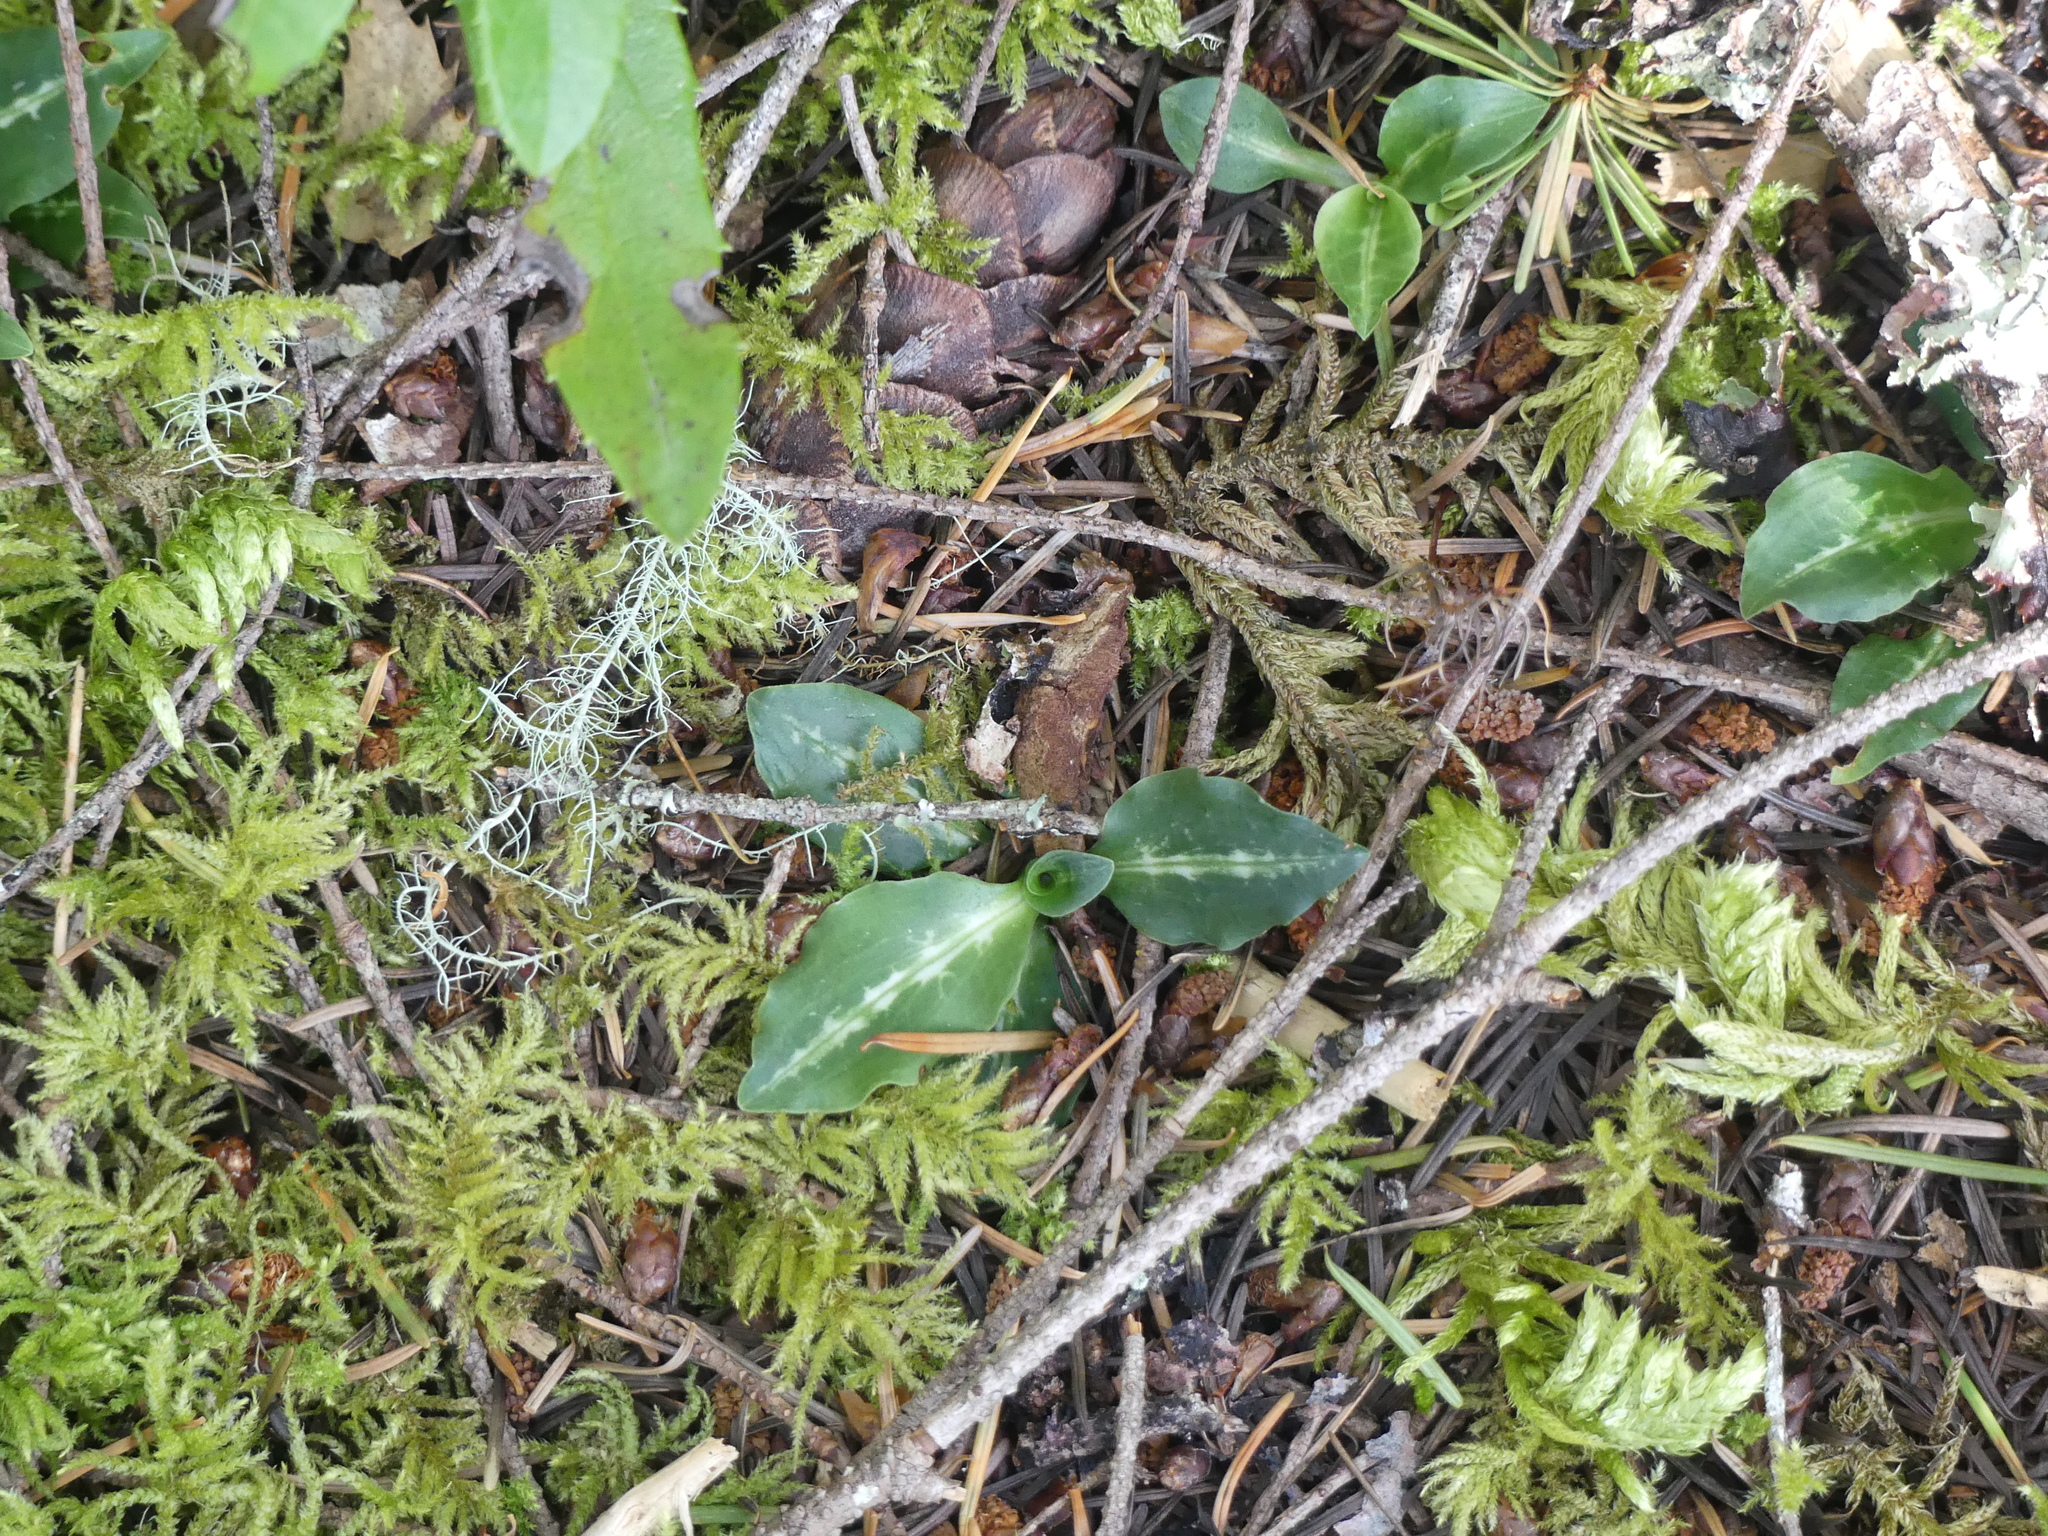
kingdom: Plantae
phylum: Tracheophyta
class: Liliopsida
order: Asparagales
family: Orchidaceae
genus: Goodyera
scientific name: Goodyera oblongifolia
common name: Giant rattlesnake-plantain
